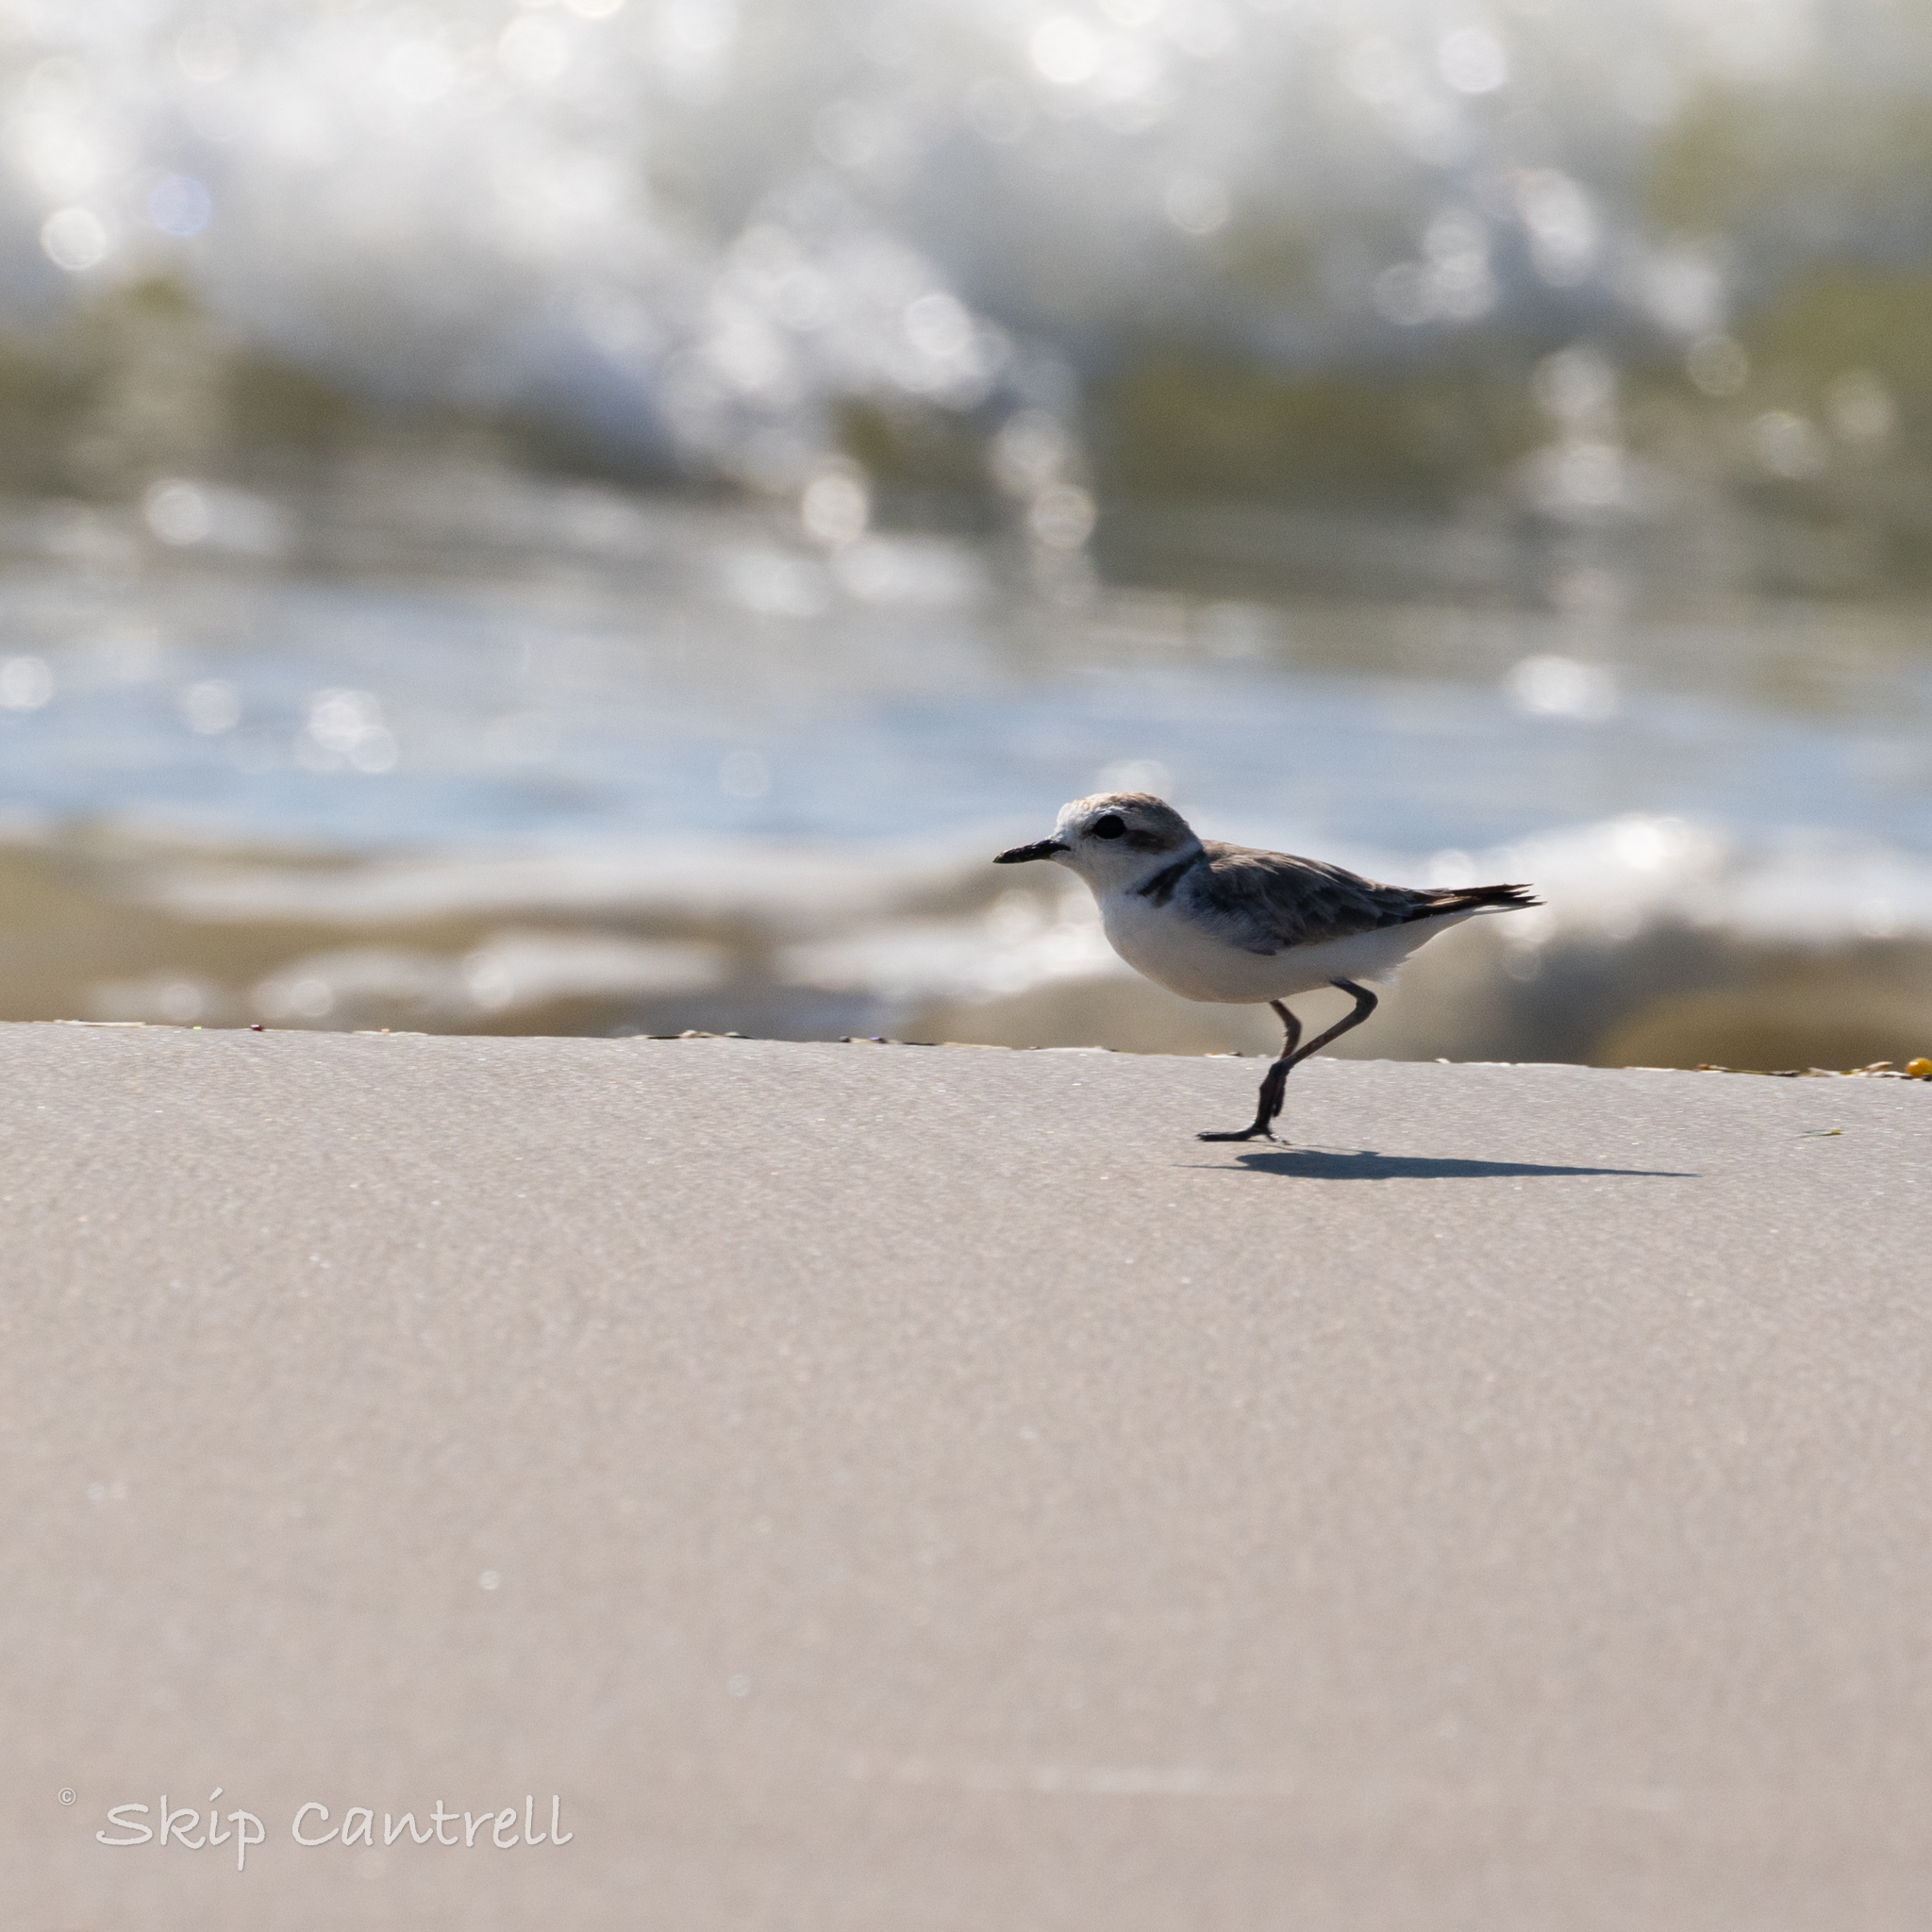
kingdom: Animalia
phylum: Chordata
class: Aves
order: Charadriiformes
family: Charadriidae
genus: Anarhynchus
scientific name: Anarhynchus
